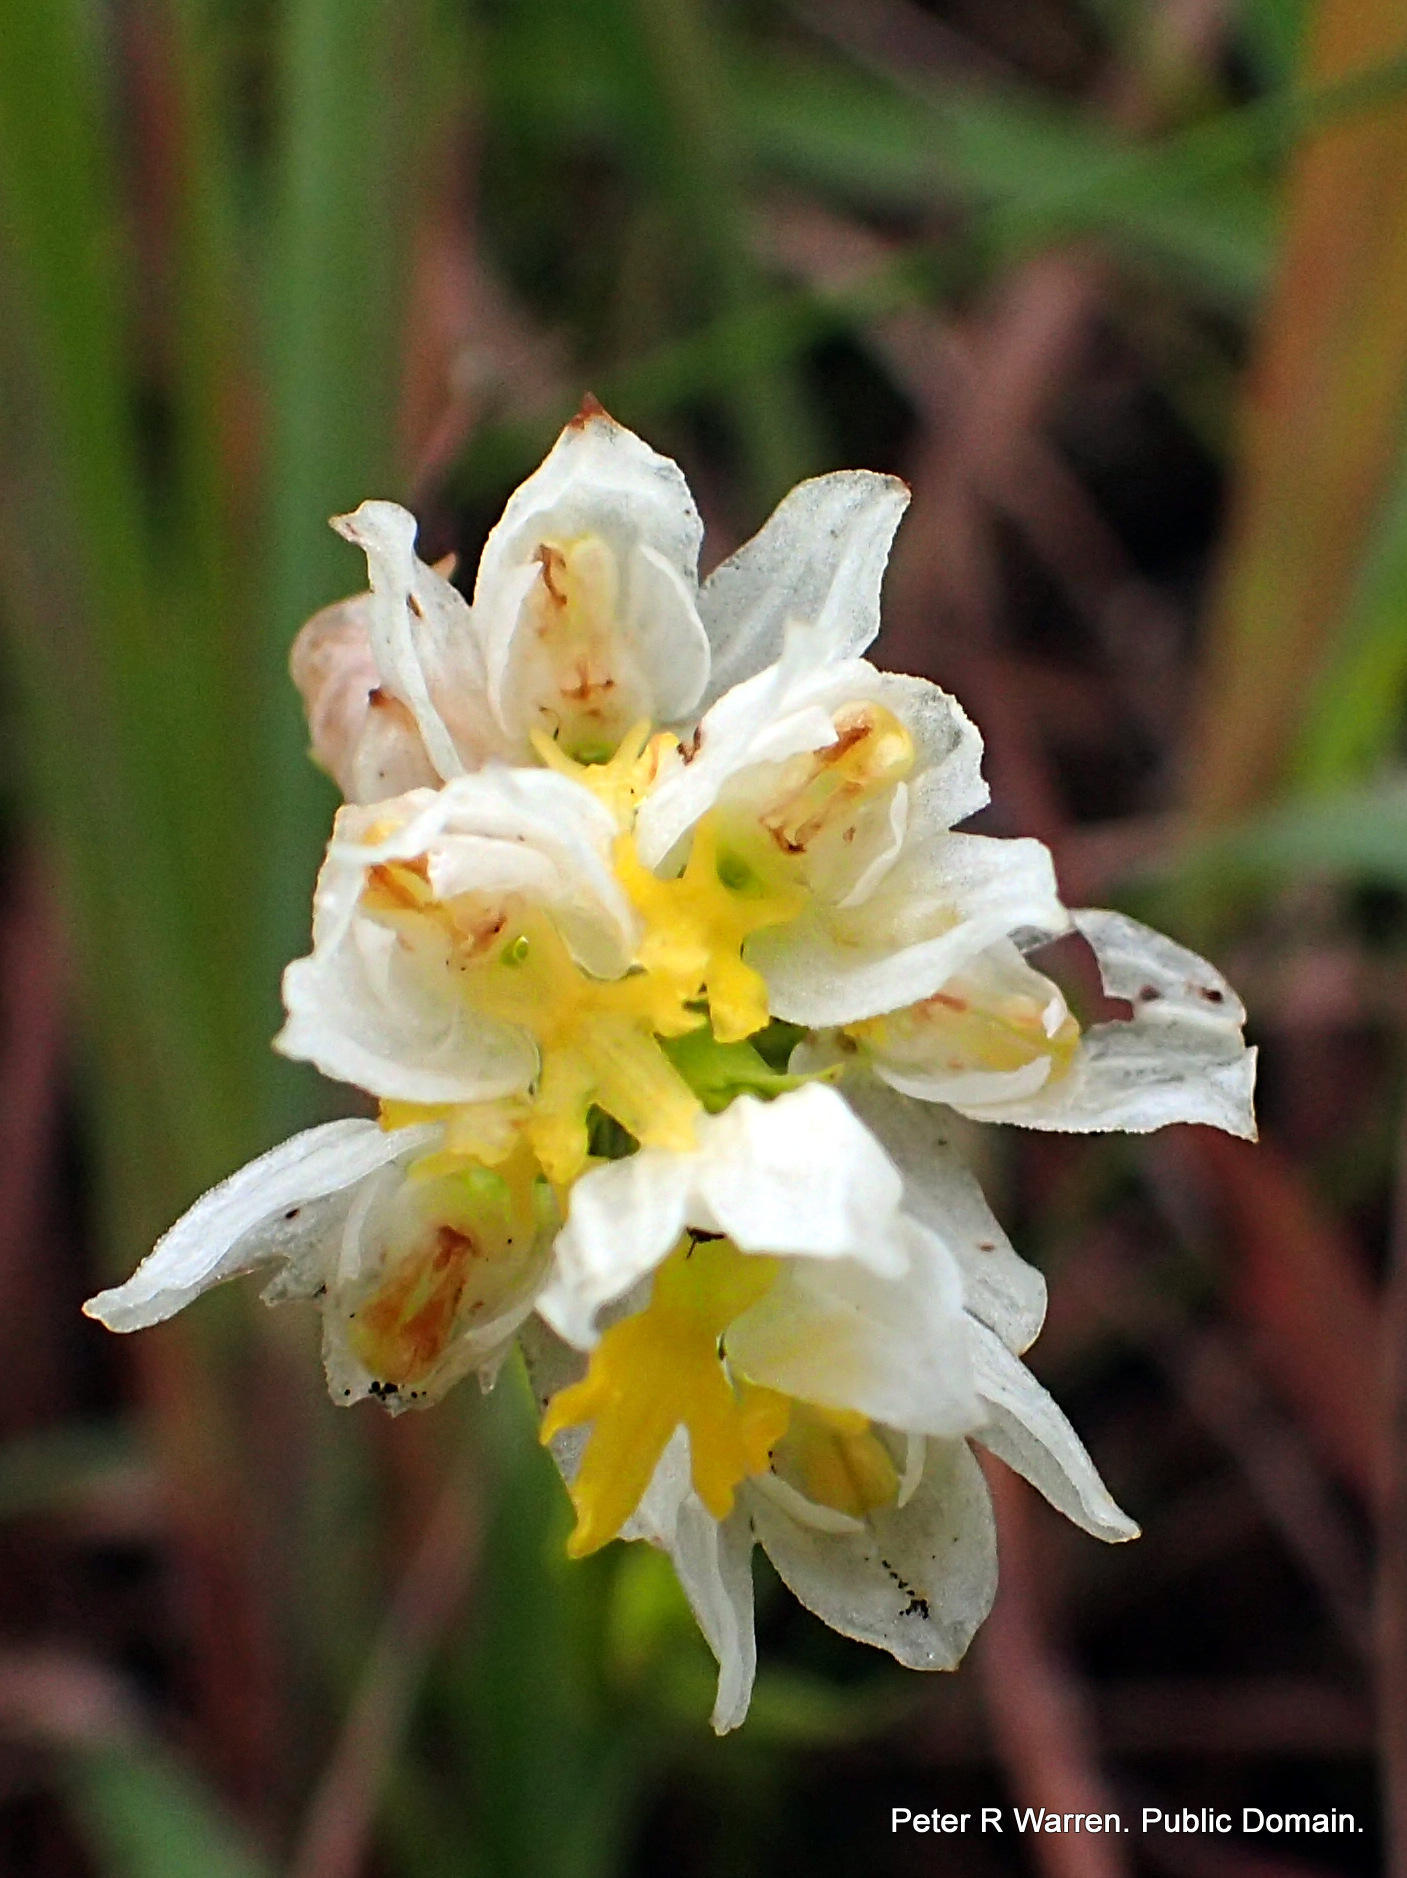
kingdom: Plantae
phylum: Tracheophyta
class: Liliopsida
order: Asparagales
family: Orchidaceae
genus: Schizochilus
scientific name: Schizochilus flexuosus
